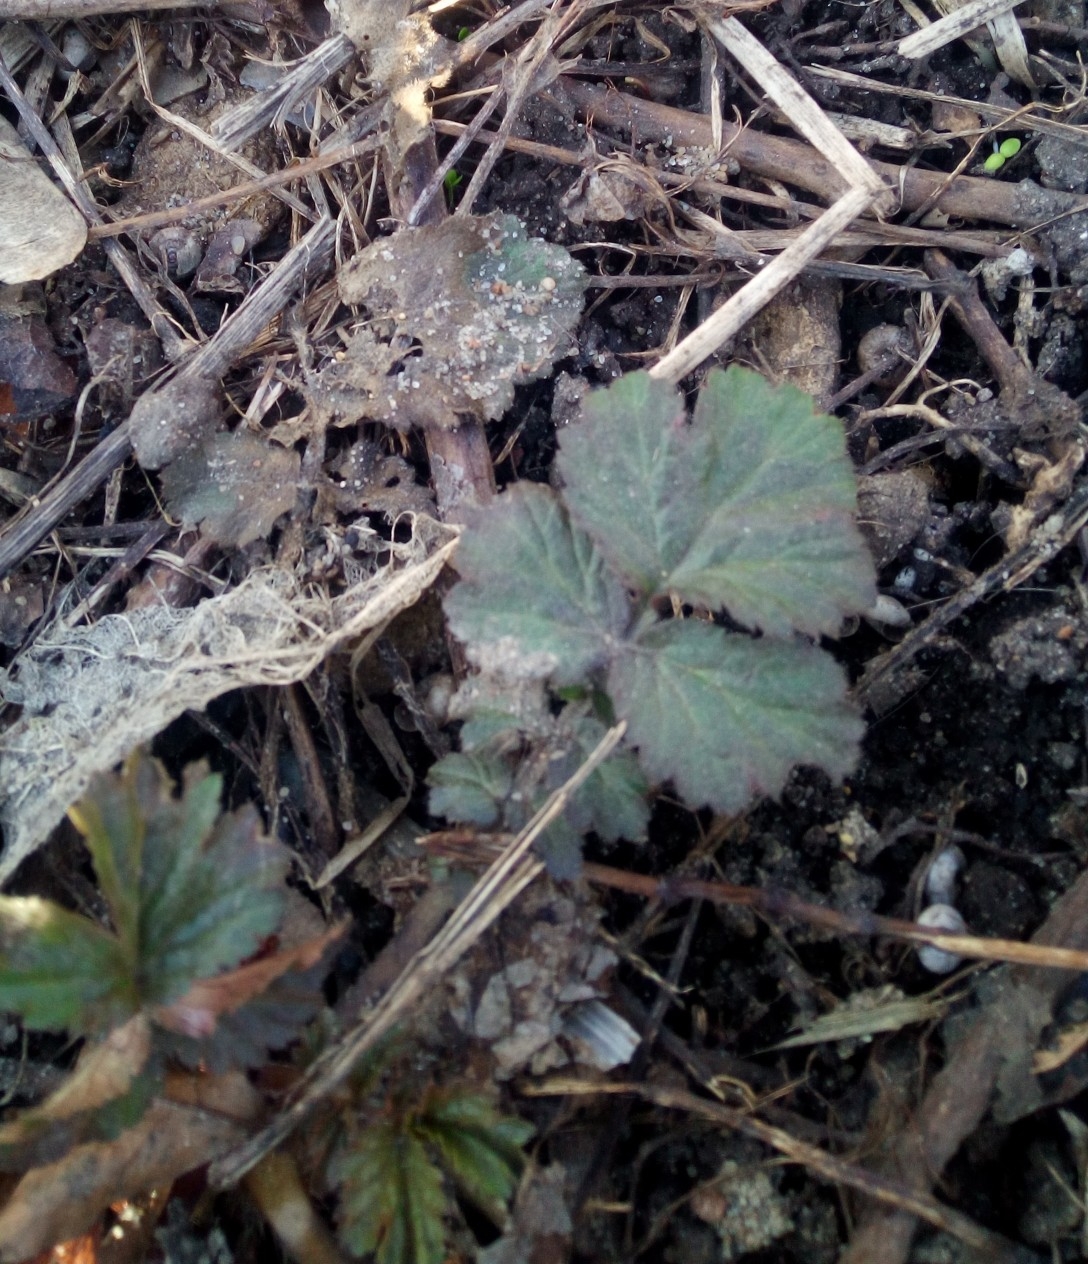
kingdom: Plantae
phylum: Tracheophyta
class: Magnoliopsida
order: Rosales
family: Rosaceae
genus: Geum
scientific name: Geum urbanum
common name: Wood avens
